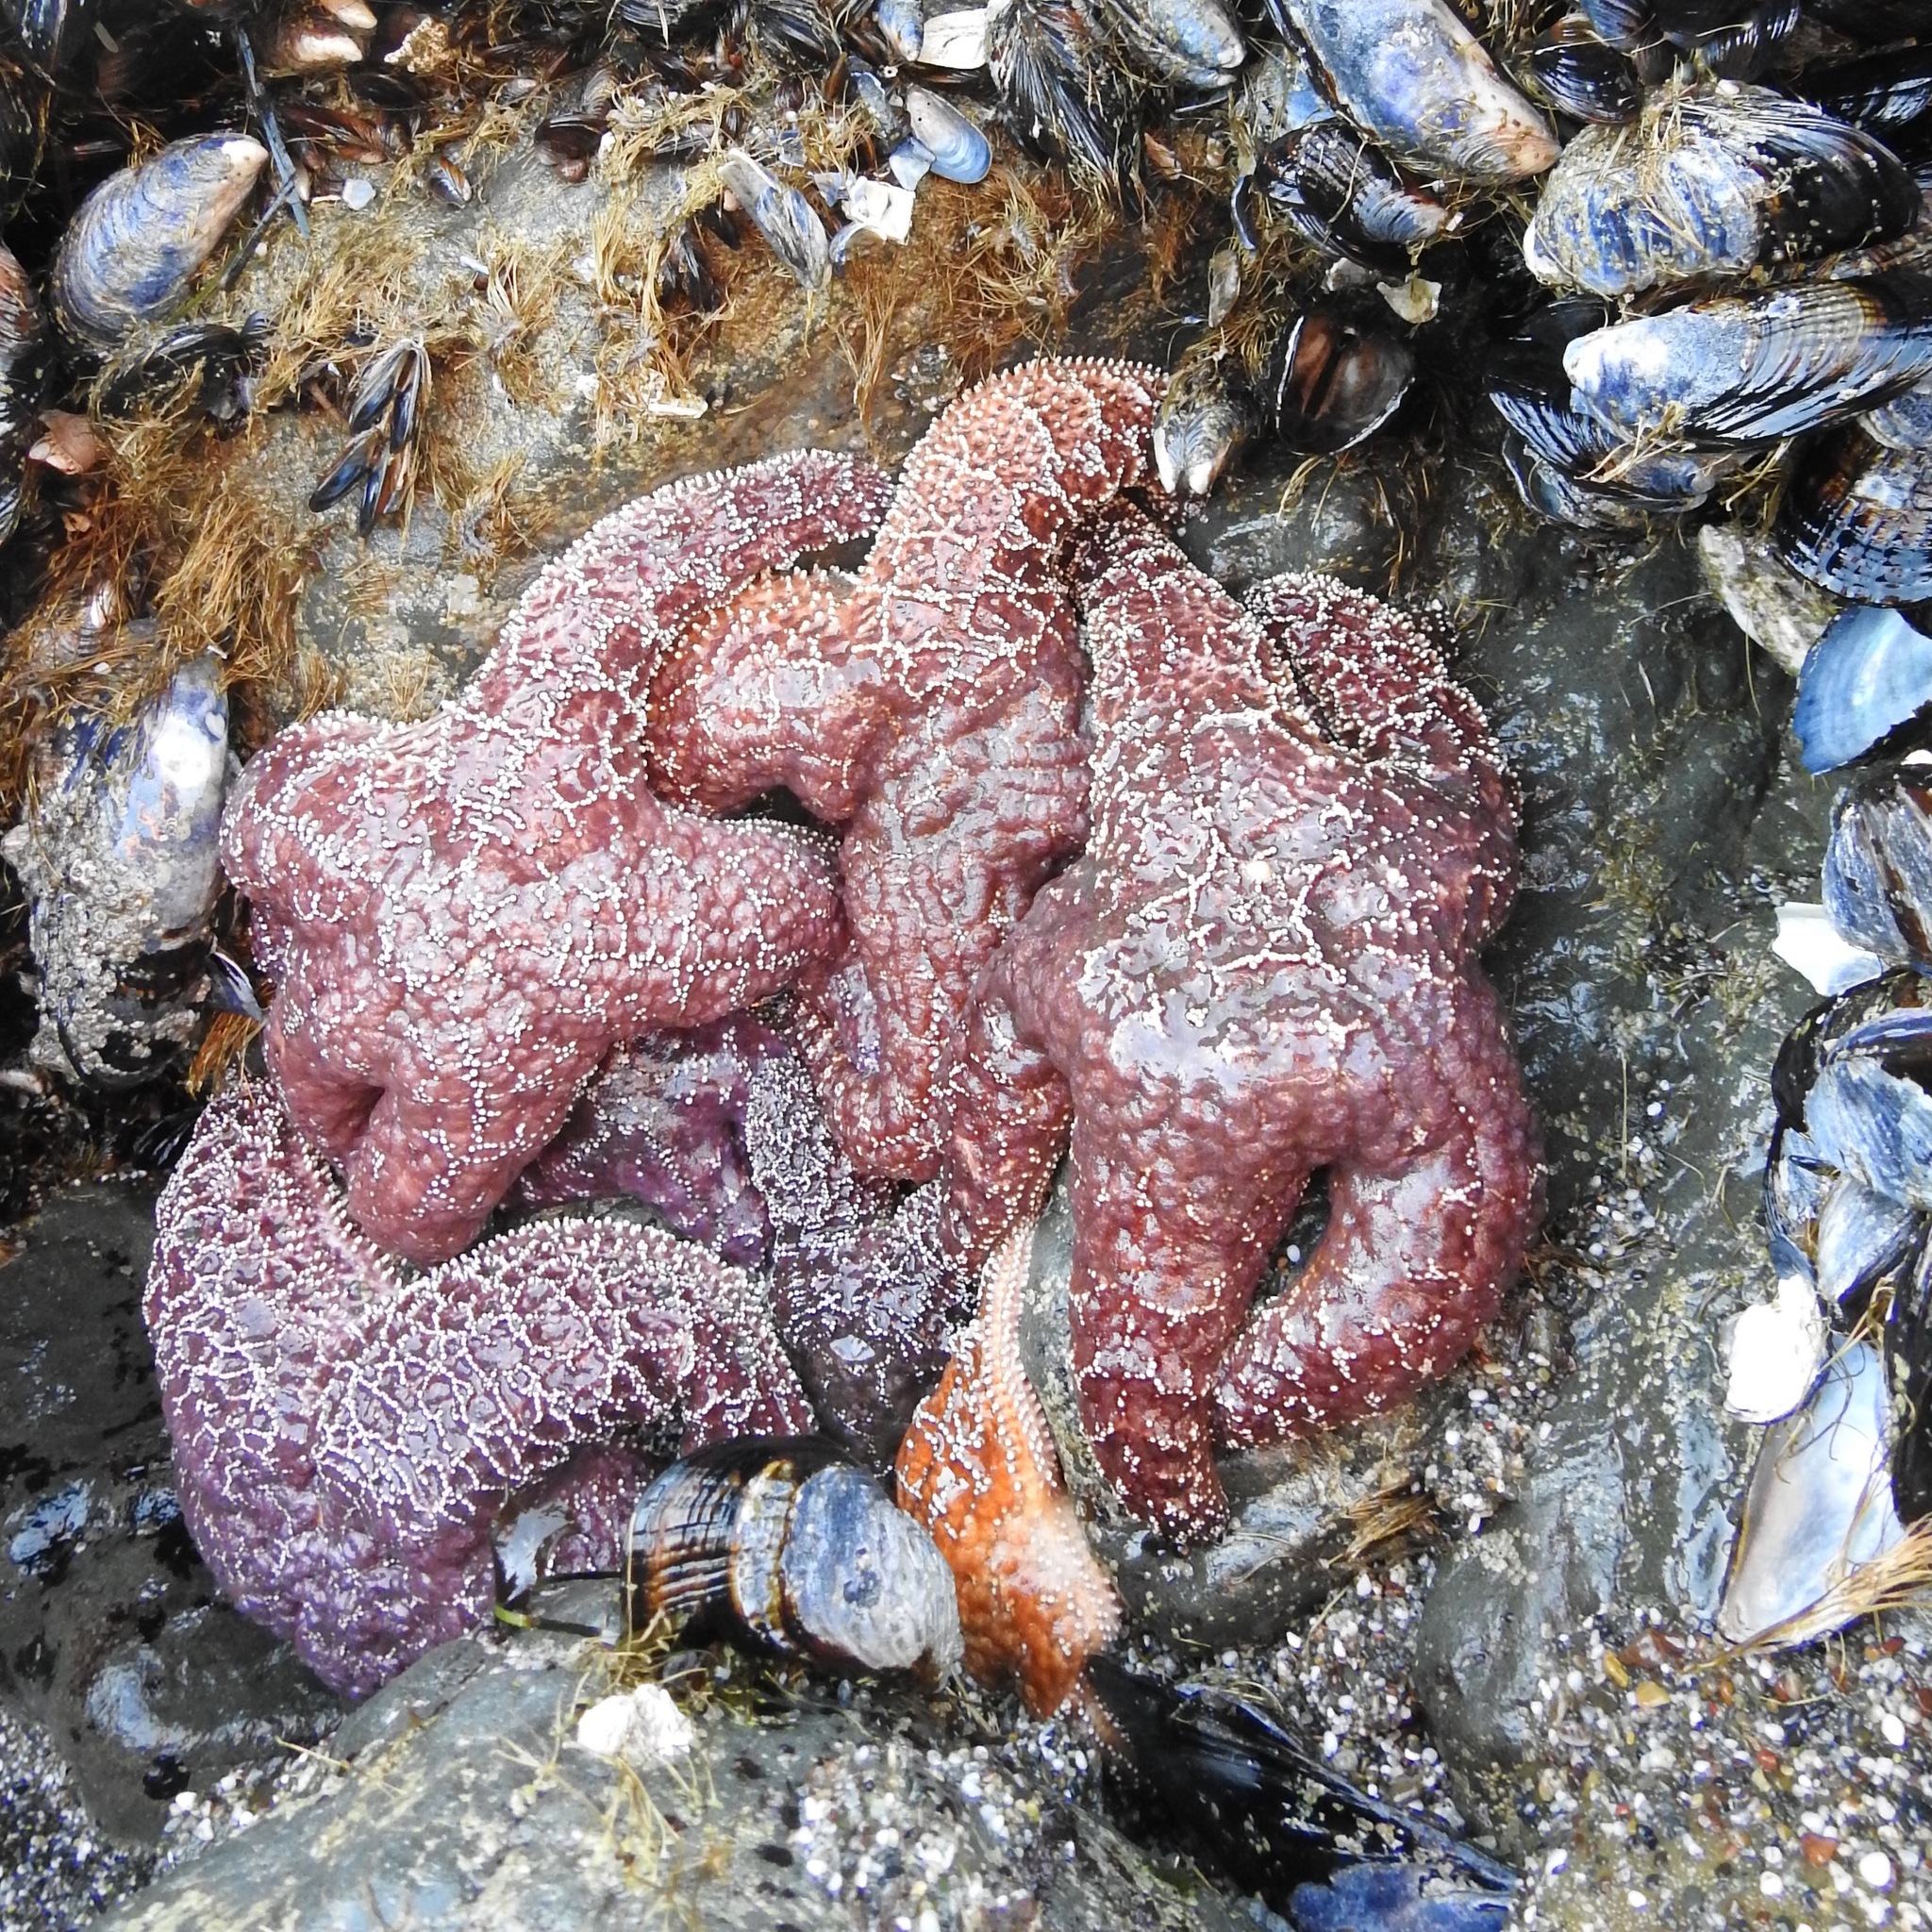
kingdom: Animalia
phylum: Echinodermata
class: Asteroidea
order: Forcipulatida
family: Asteriidae
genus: Pisaster
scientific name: Pisaster ochraceus
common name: Ochre stars
